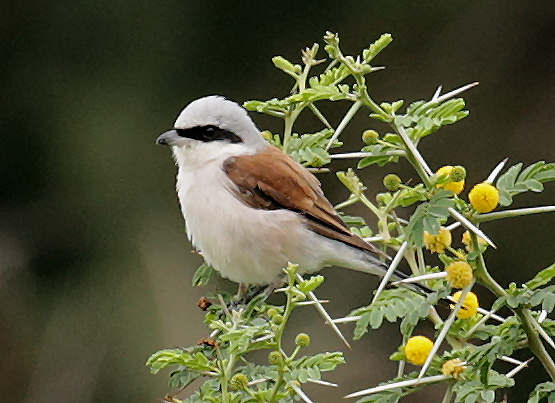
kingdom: Animalia
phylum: Chordata
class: Aves
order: Passeriformes
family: Laniidae
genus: Lanius
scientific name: Lanius collurio
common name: Red-backed shrike
